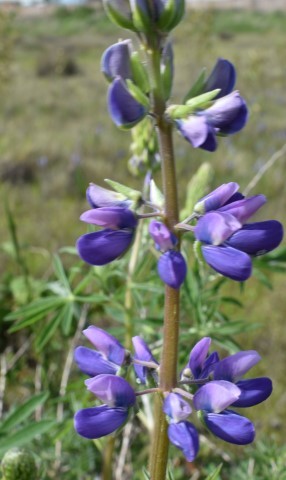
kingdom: Plantae
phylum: Tracheophyta
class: Magnoliopsida
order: Fabales
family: Fabaceae
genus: Lupinus
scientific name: Lupinus rivularis
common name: Riverbank lupine
